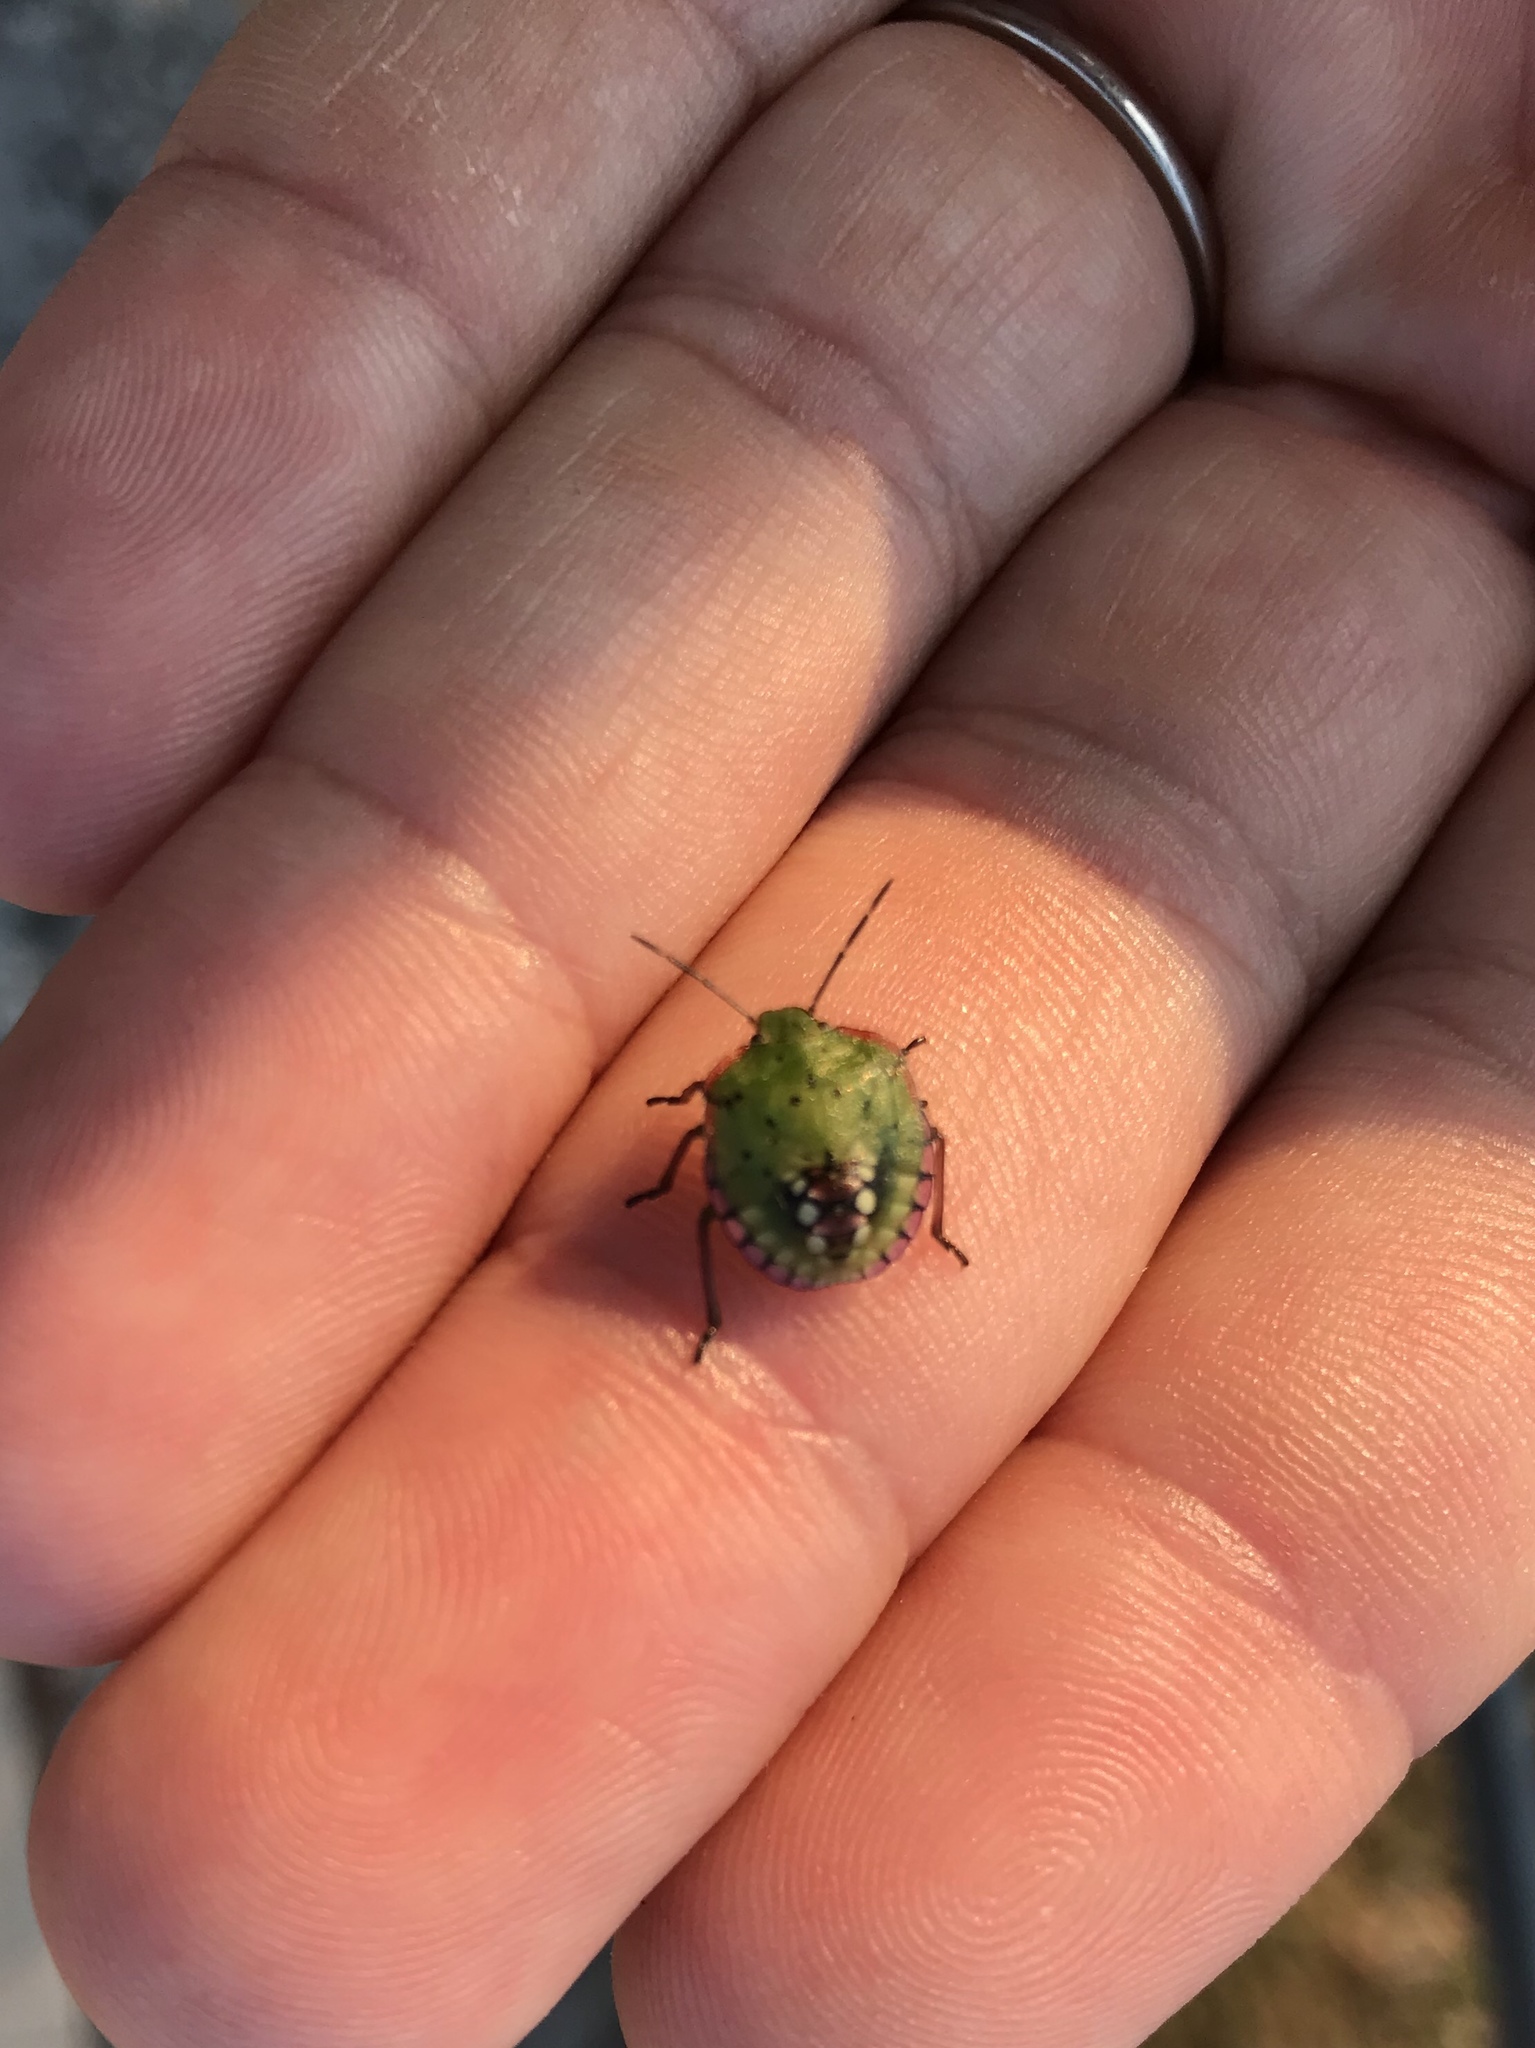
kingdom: Animalia
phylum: Arthropoda
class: Insecta
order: Hemiptera
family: Pentatomidae
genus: Nezara
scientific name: Nezara viridula
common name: Southern green stink bug
